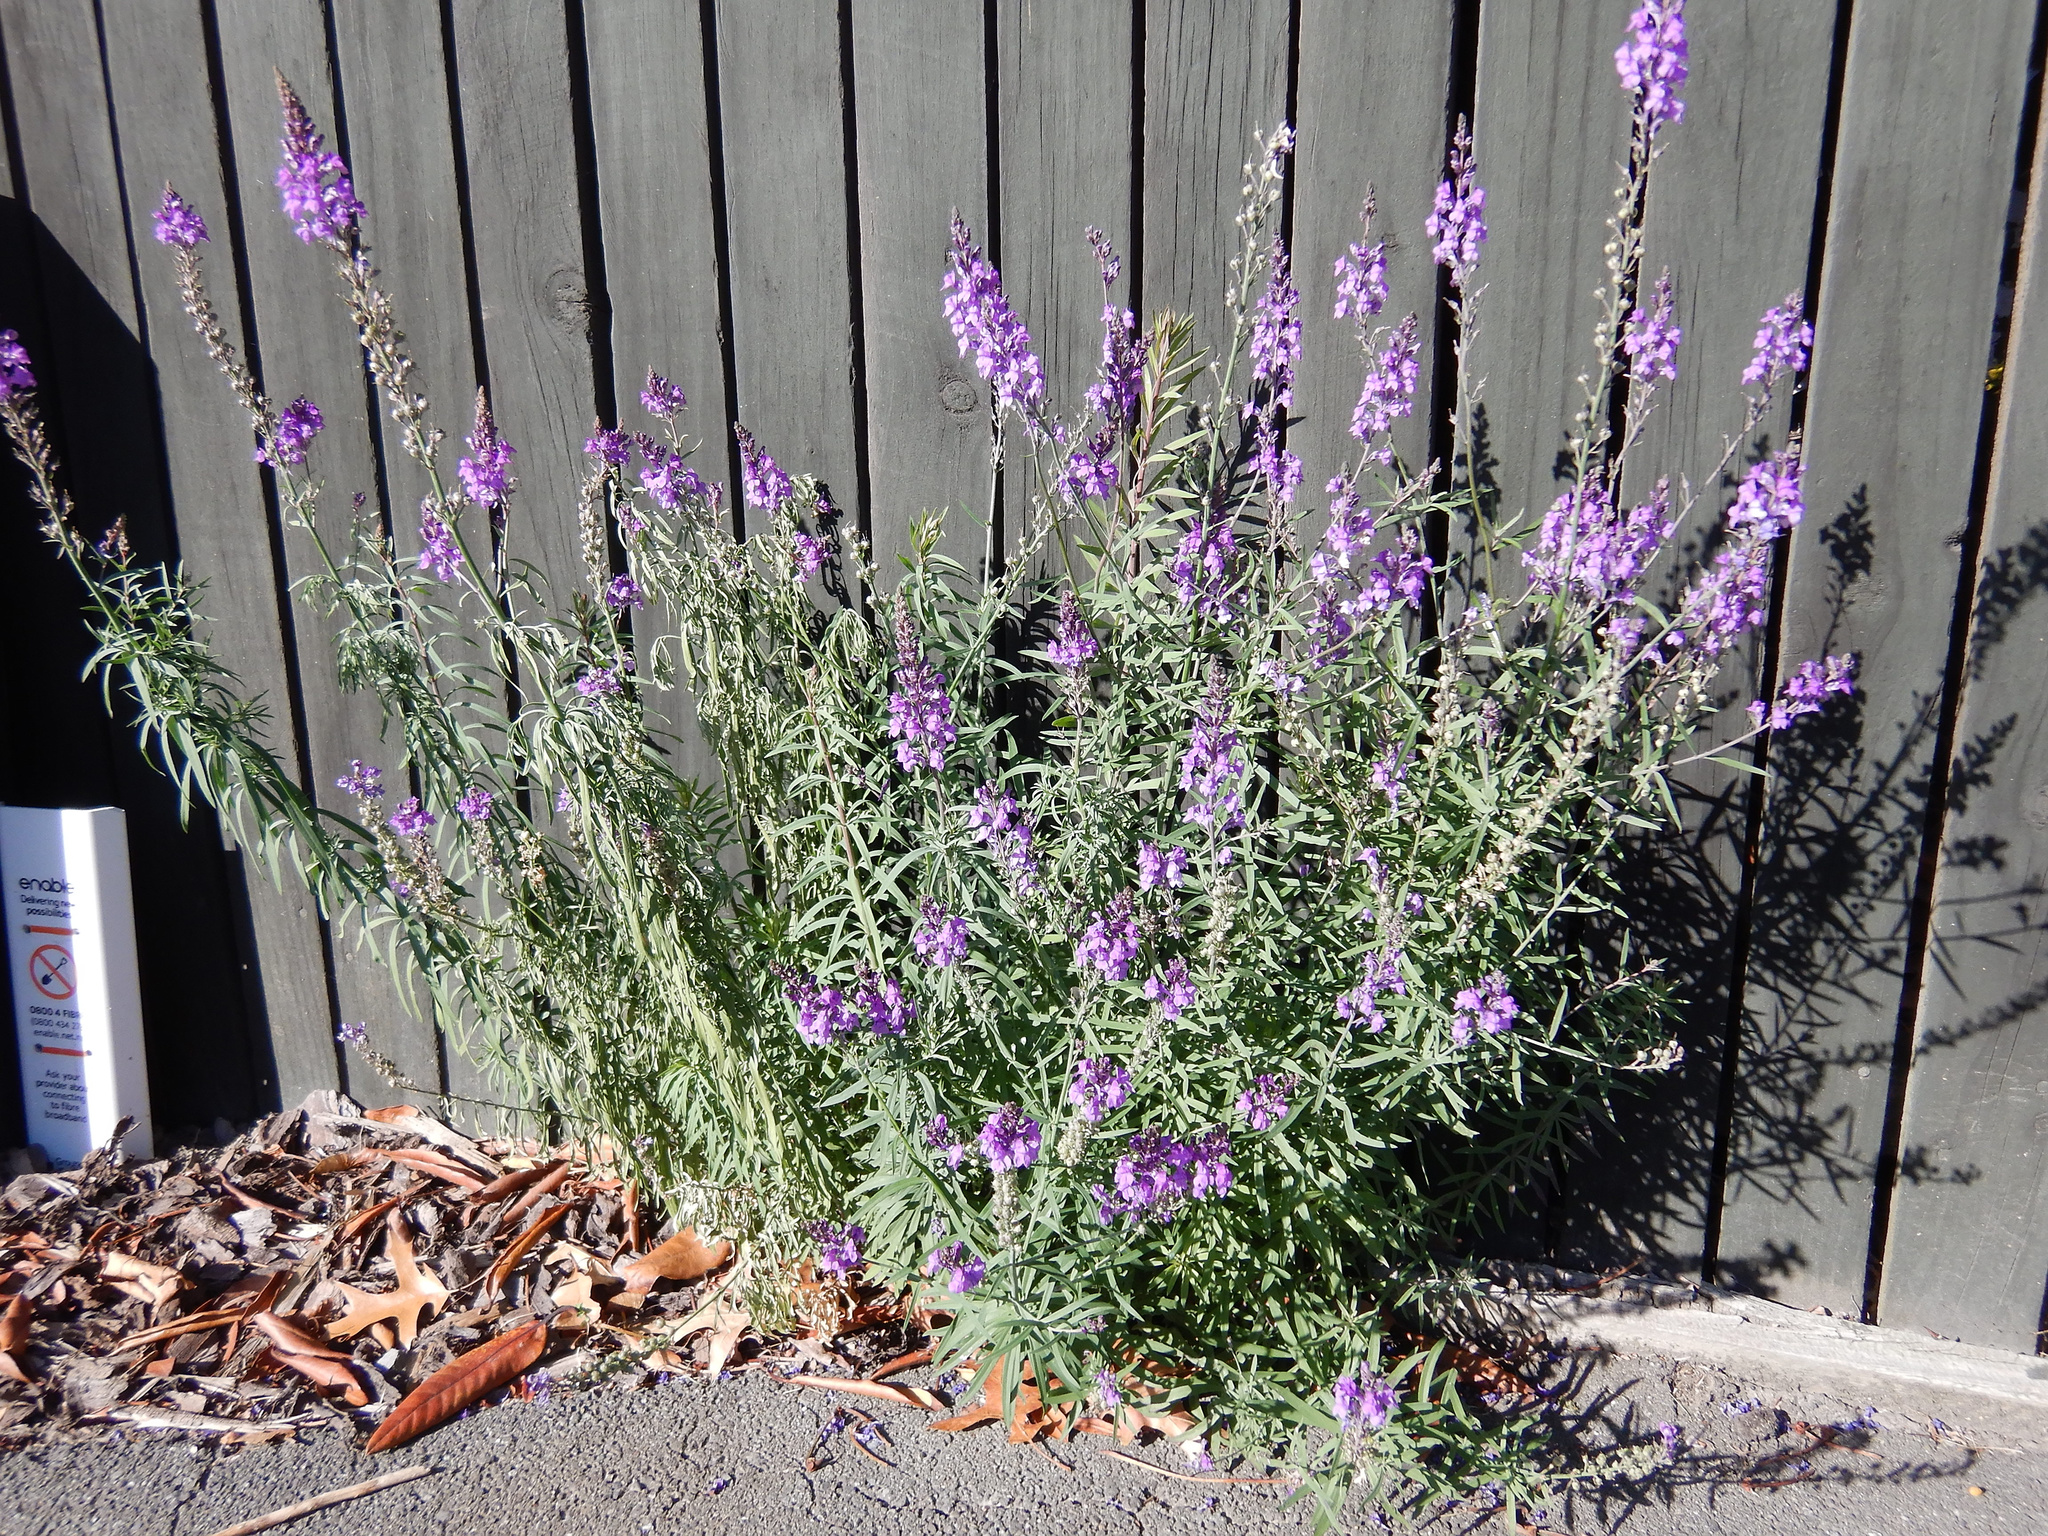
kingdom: Plantae
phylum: Tracheophyta
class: Magnoliopsida
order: Lamiales
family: Plantaginaceae
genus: Linaria
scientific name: Linaria purpurea
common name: Purple toadflax
